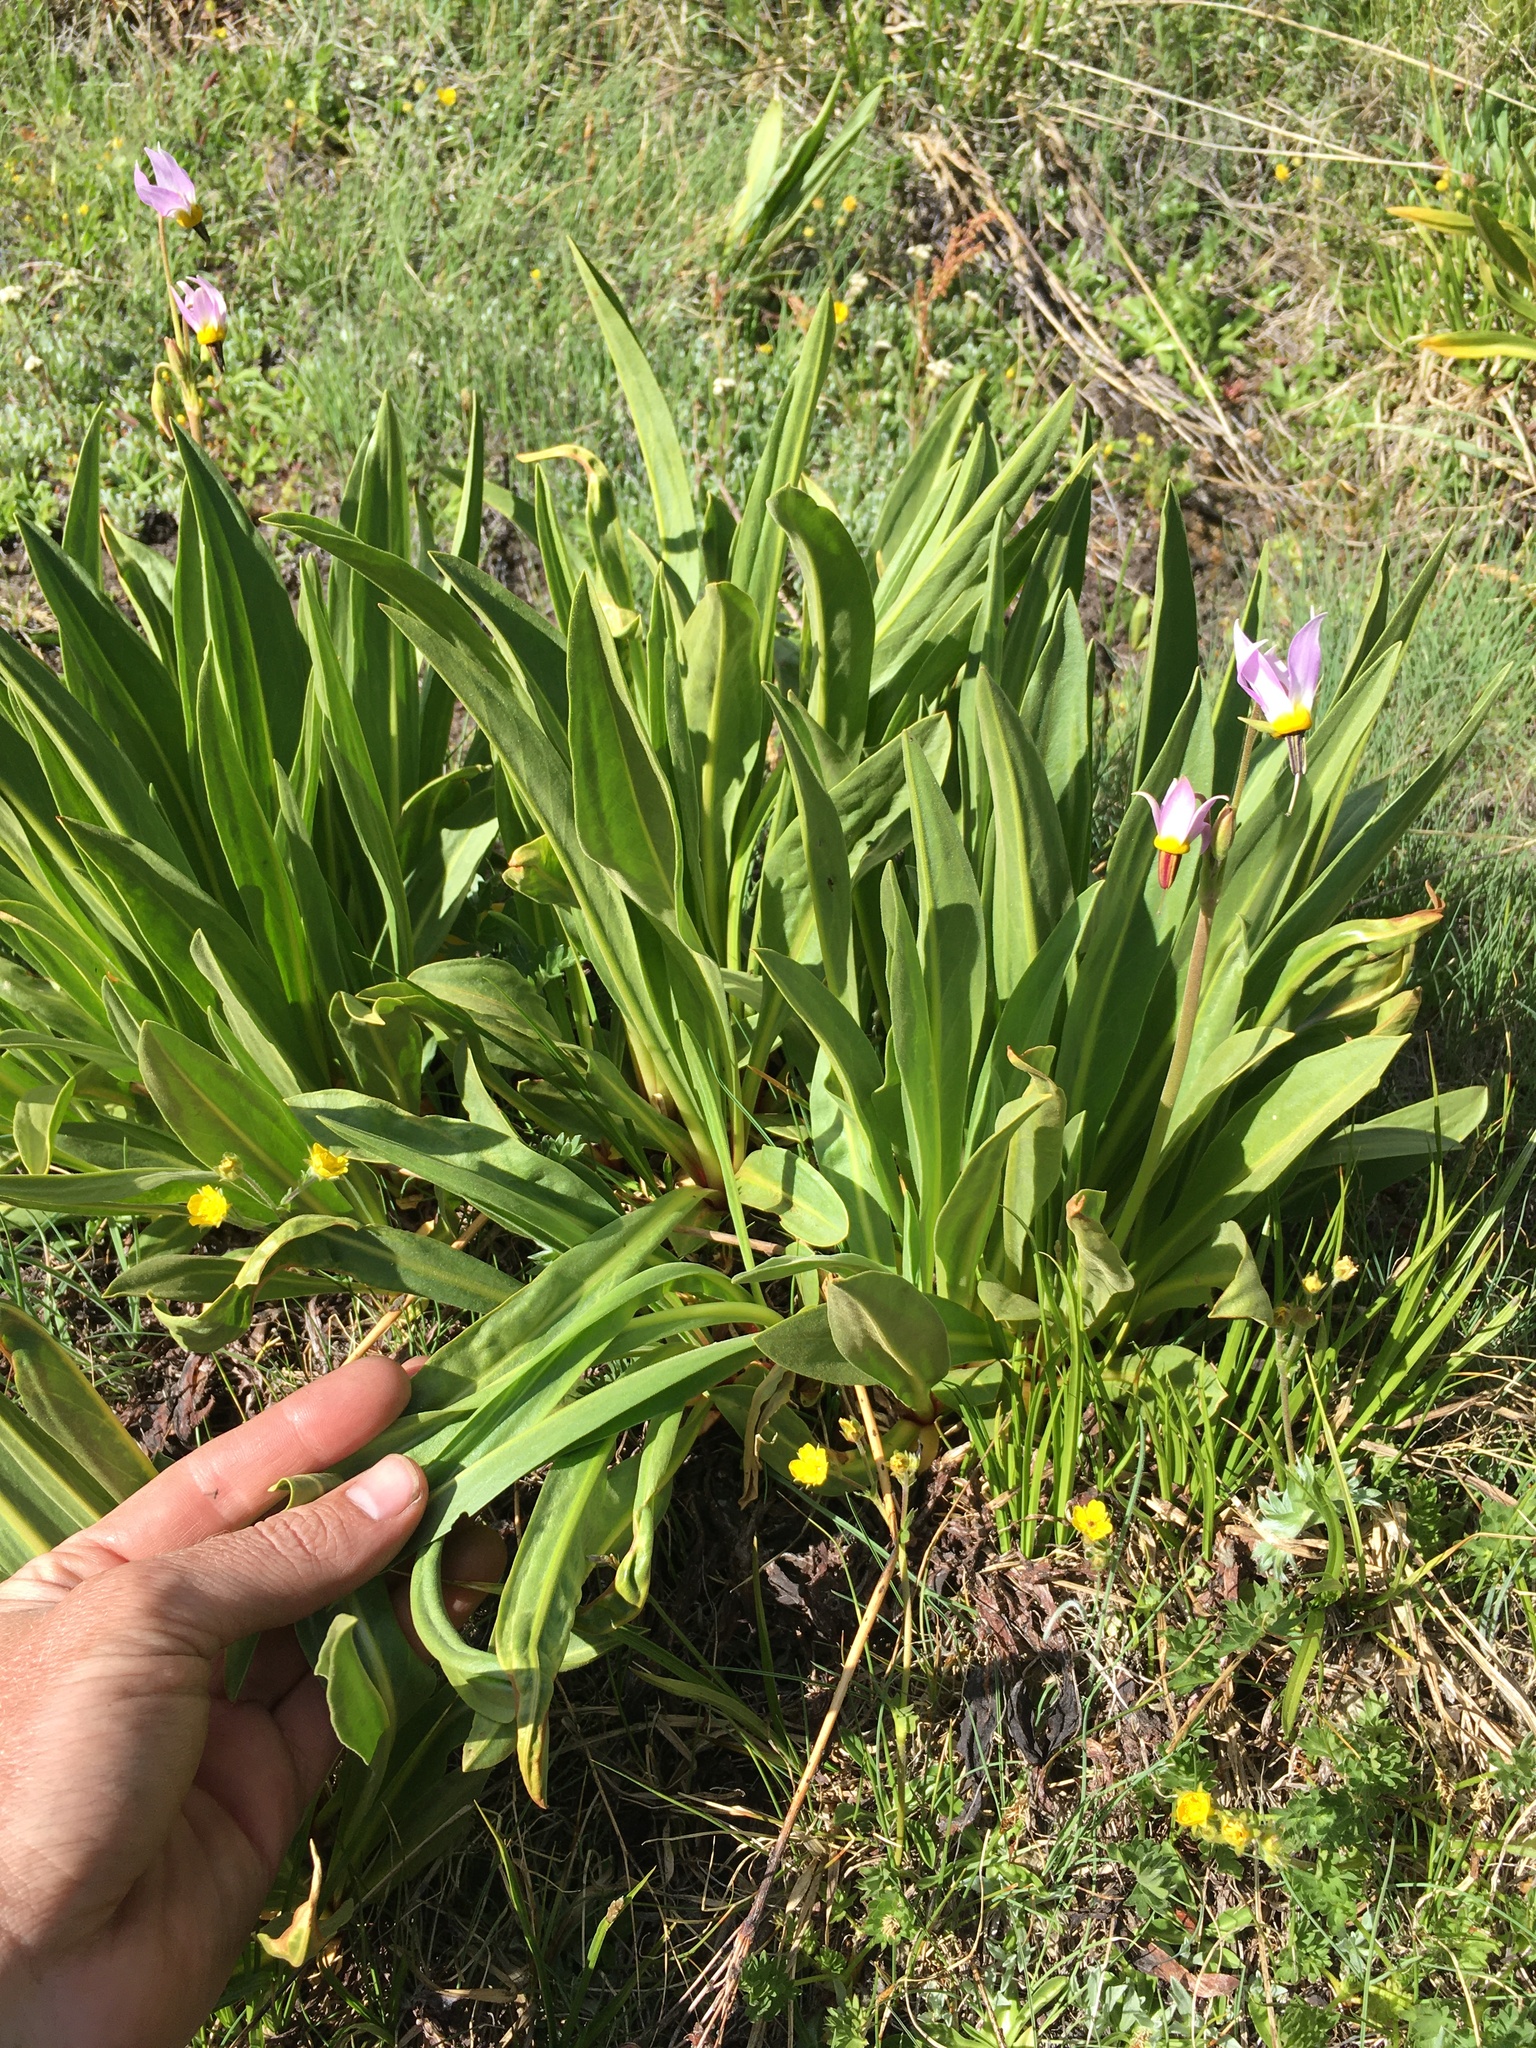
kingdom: Plantae
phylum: Tracheophyta
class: Magnoliopsida
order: Ericales
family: Primulaceae
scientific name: Primulaceae
